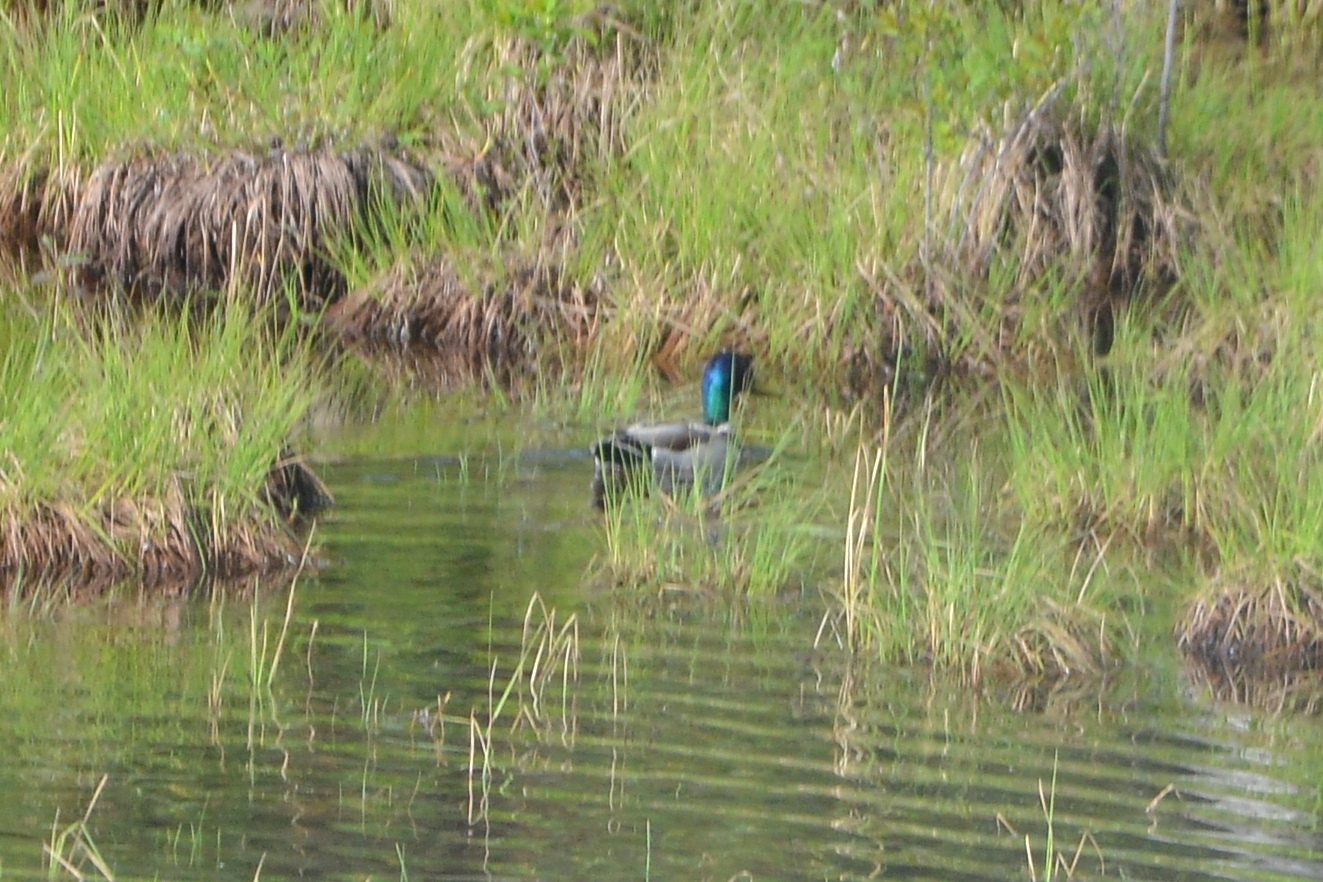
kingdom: Animalia
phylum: Chordata
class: Aves
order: Anseriformes
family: Anatidae
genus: Anas
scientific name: Anas platyrhynchos
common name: Mallard
